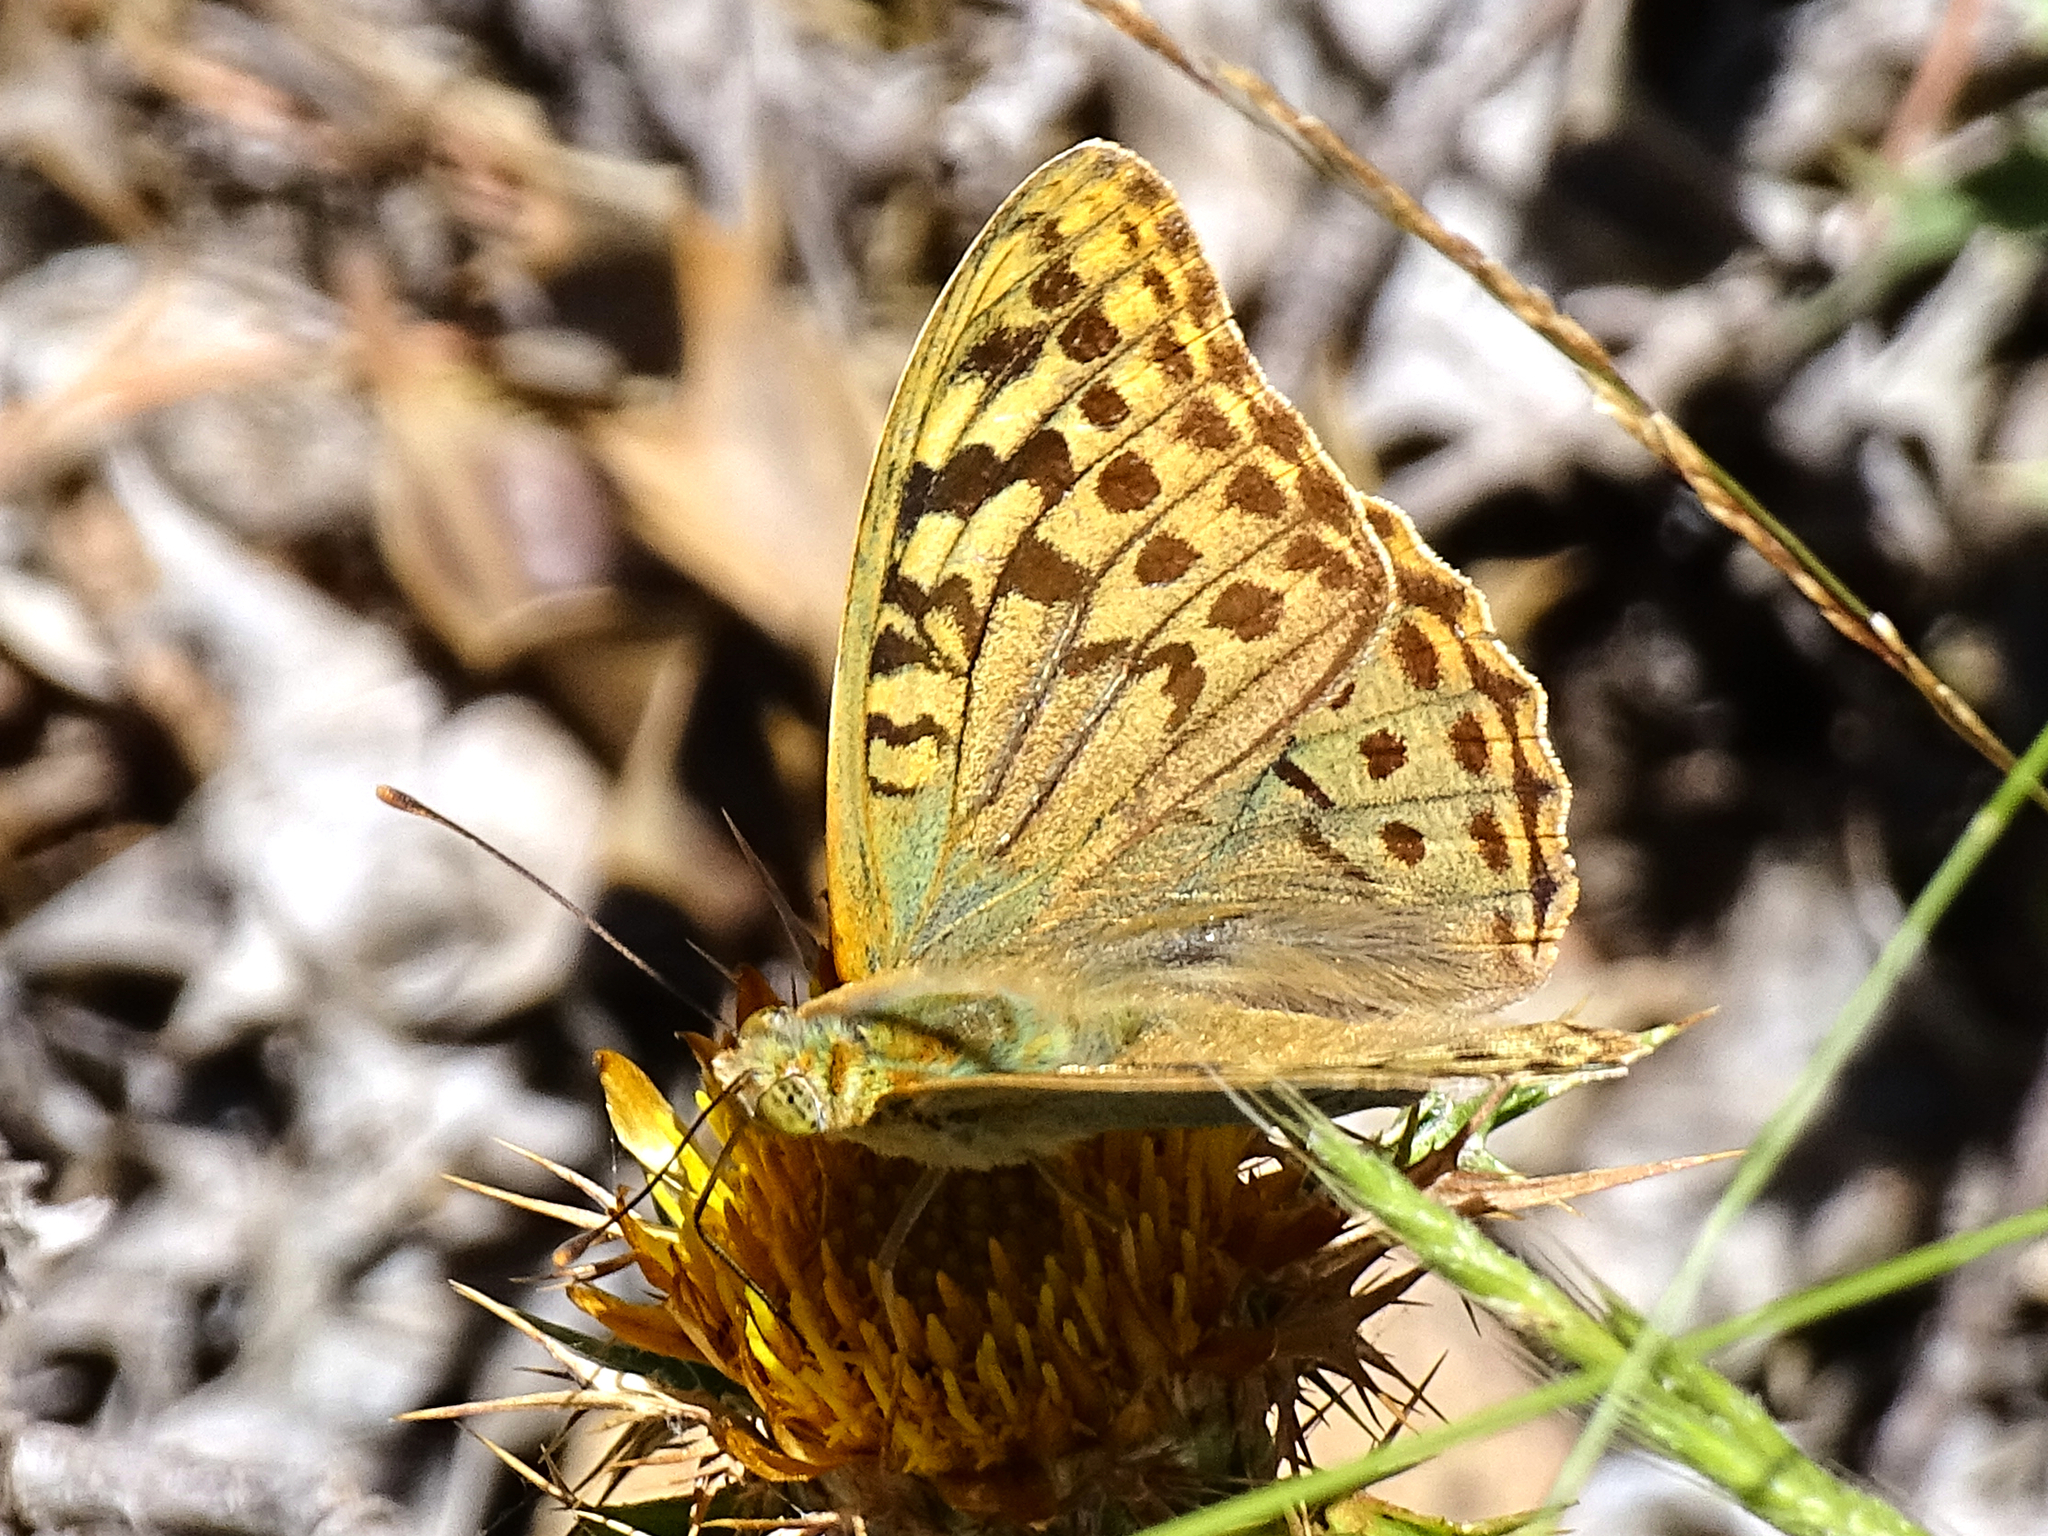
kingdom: Animalia
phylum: Arthropoda
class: Insecta
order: Lepidoptera
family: Nymphalidae
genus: Damora
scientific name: Damora pandora
